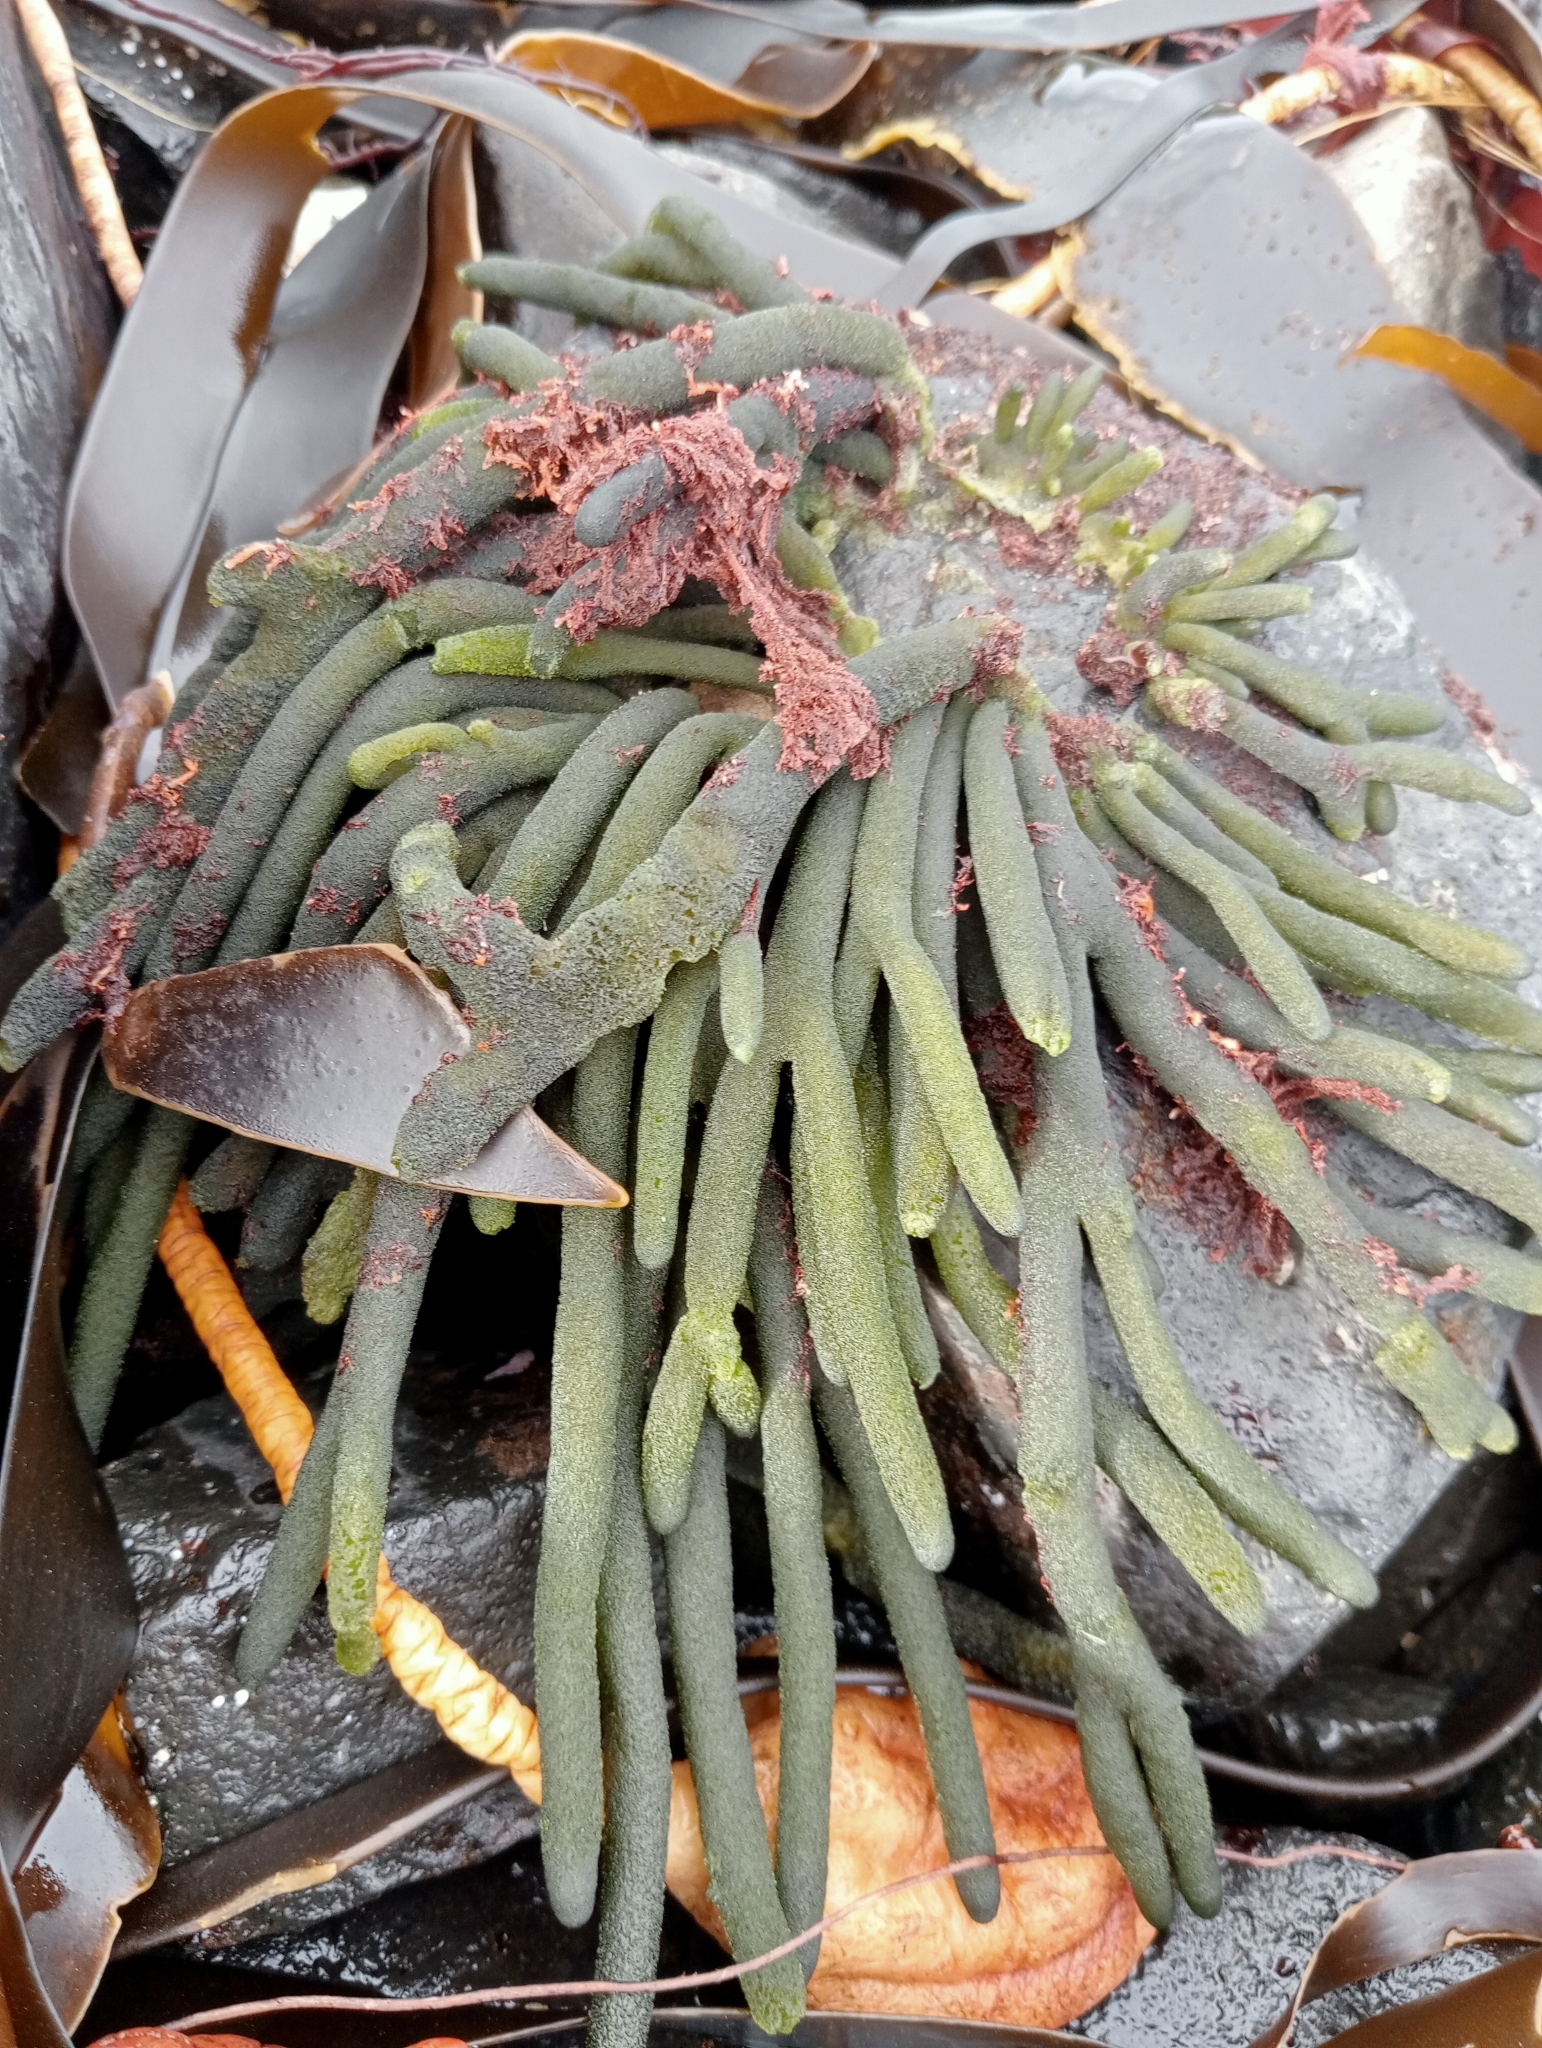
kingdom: Plantae
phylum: Chlorophyta
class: Ulvophyceae
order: Bryopsidales
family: Codiaceae
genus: Codium
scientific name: Codium fragile
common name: Dead man's fingers
